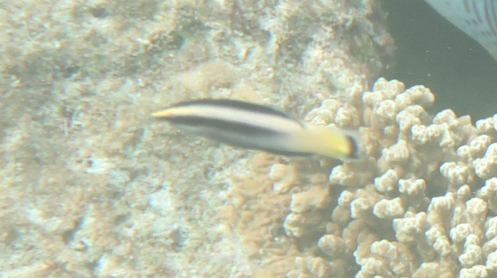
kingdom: Animalia
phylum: Chordata
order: Perciformes
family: Labridae
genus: Labroides
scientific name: Labroides bicolor
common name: Bicolor cleaner wrasse
